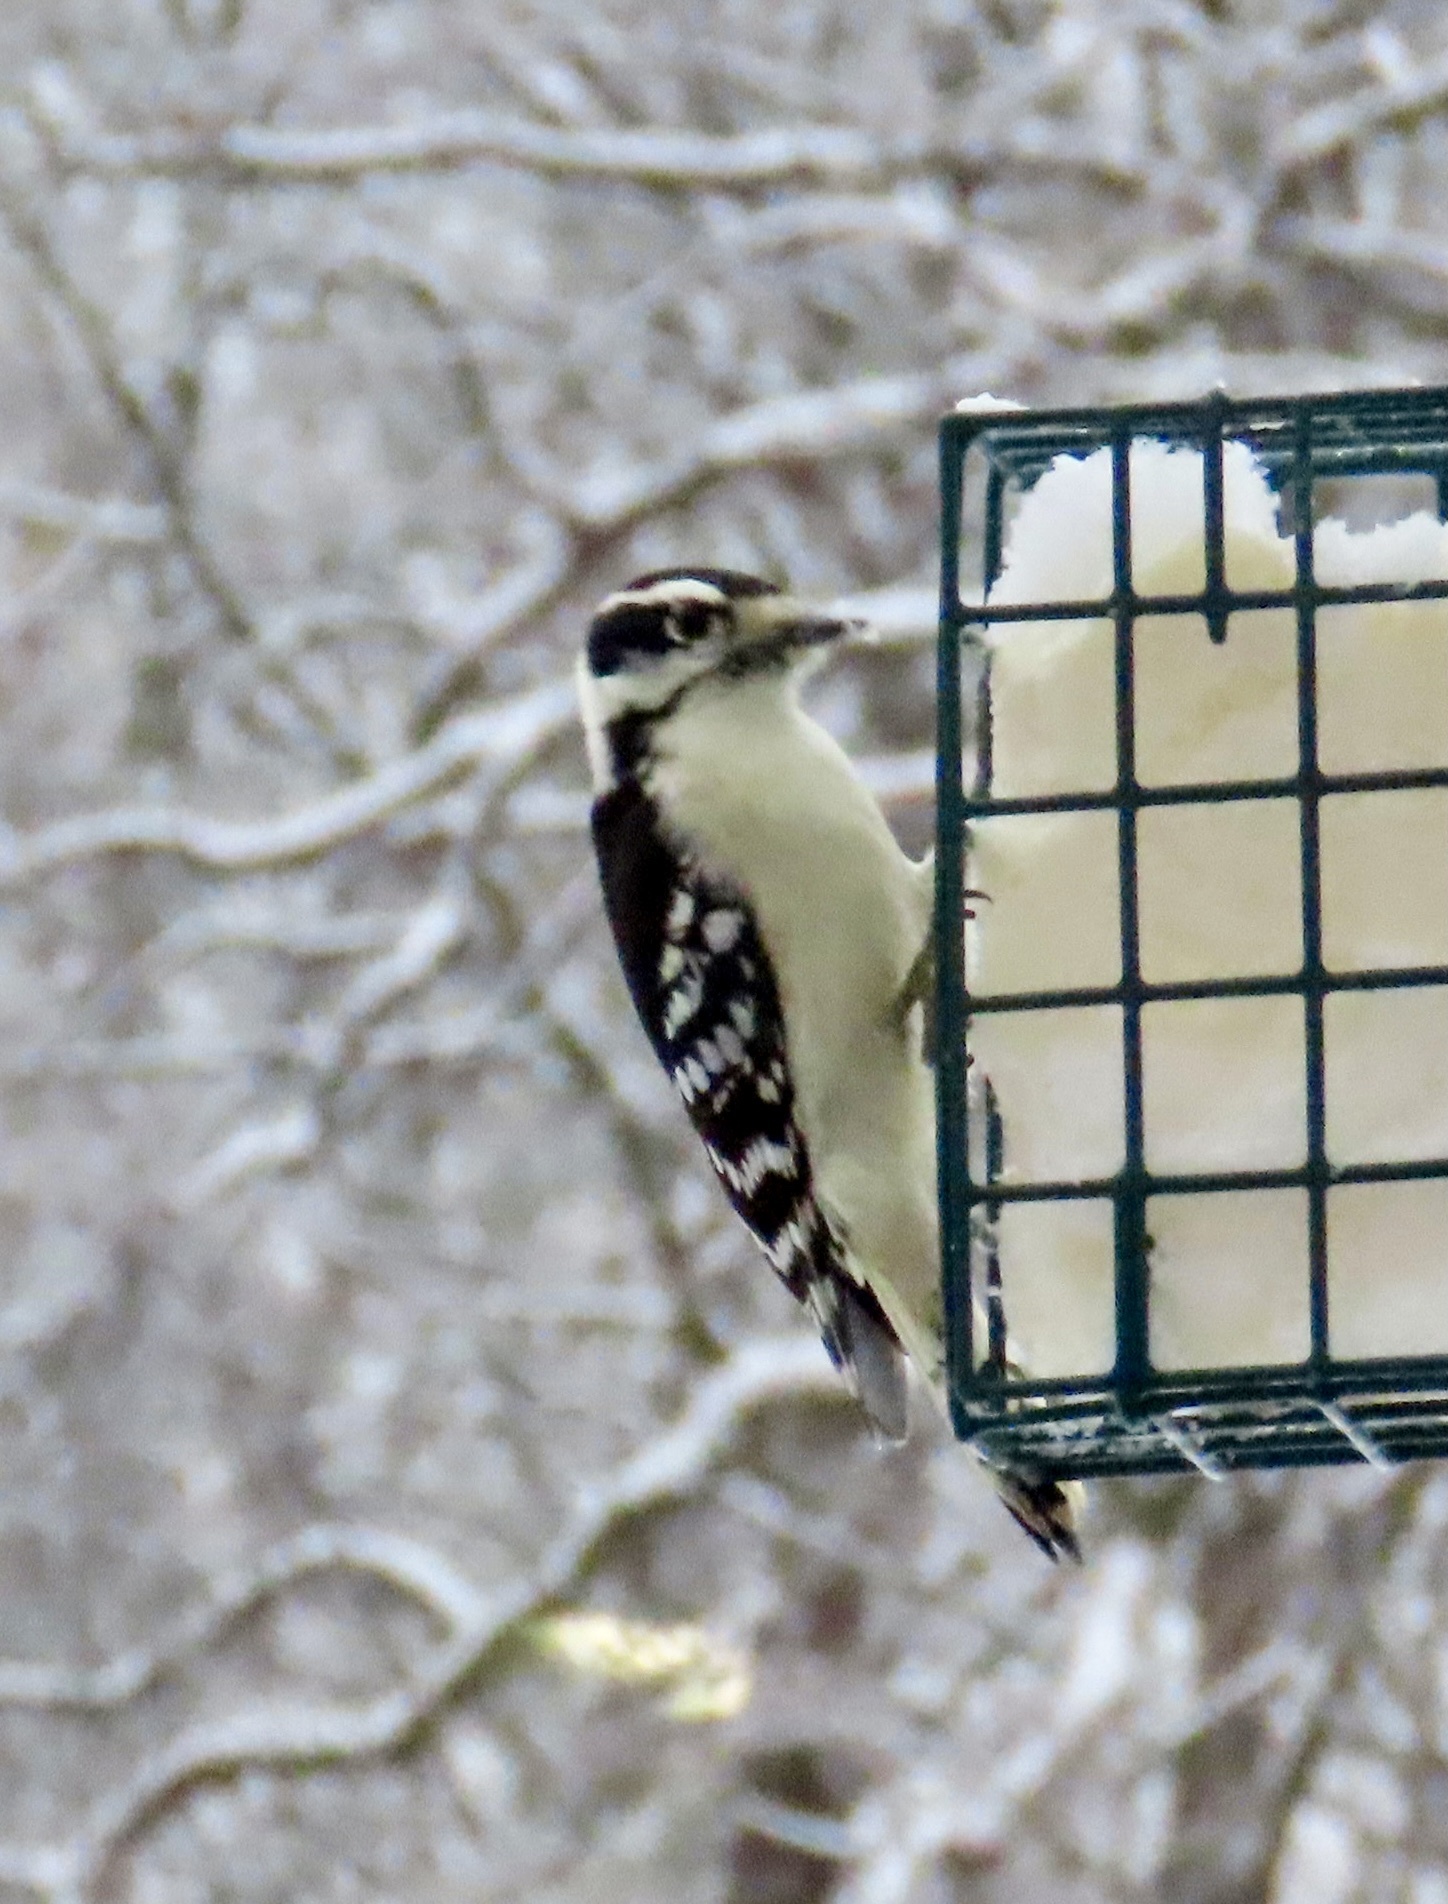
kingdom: Animalia
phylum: Chordata
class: Aves
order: Piciformes
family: Picidae
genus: Dryobates
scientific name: Dryobates pubescens
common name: Downy woodpecker
